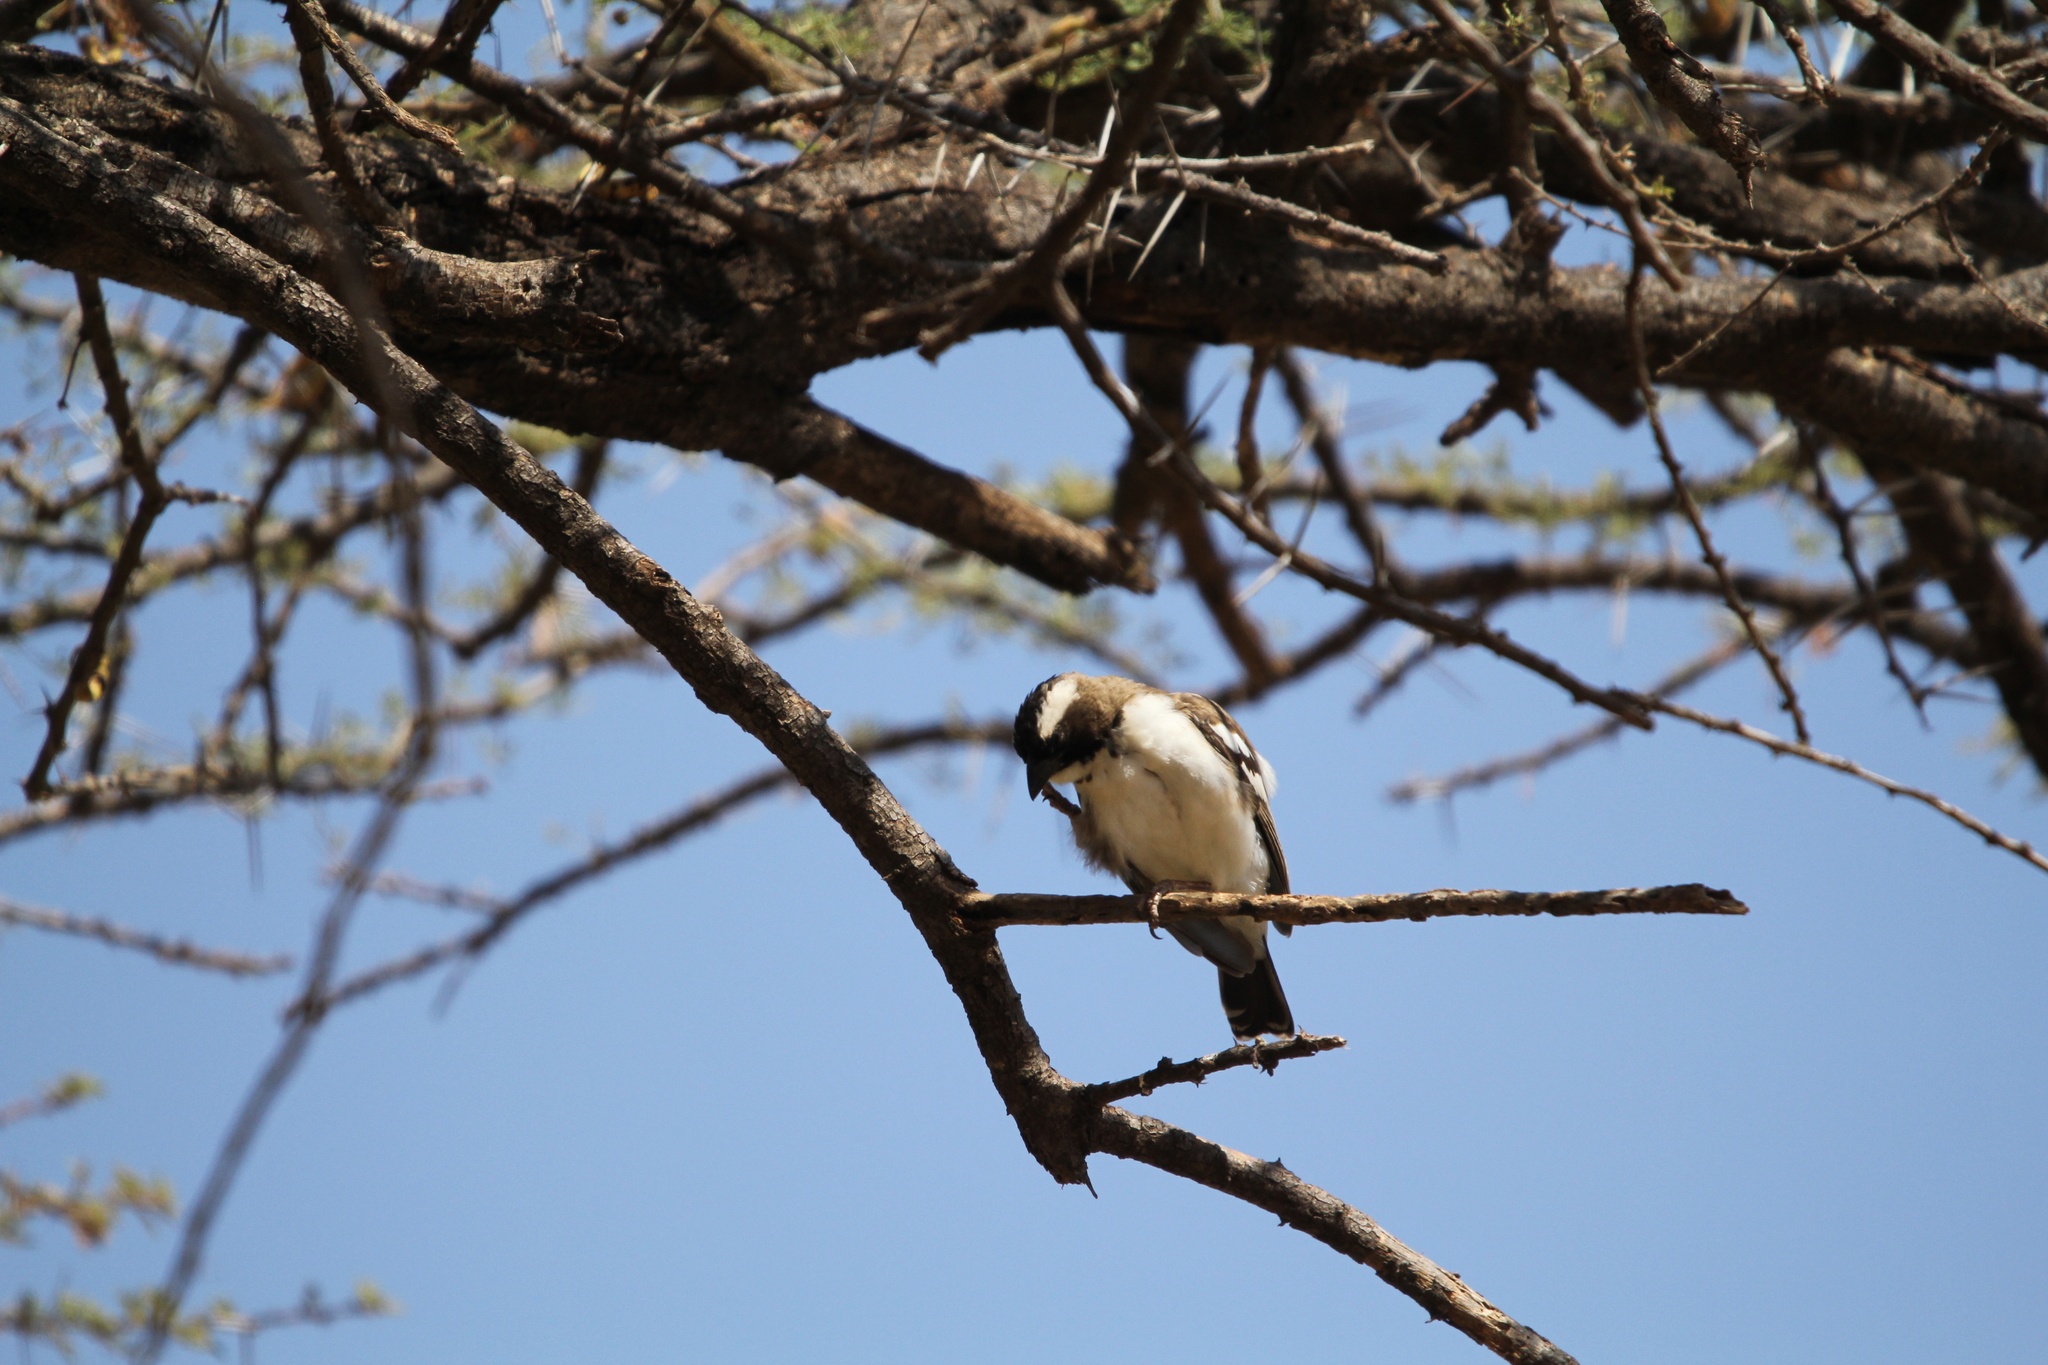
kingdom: Animalia
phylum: Chordata
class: Aves
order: Passeriformes
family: Passeridae
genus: Plocepasser
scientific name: Plocepasser mahali
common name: White-browed sparrow-weaver
